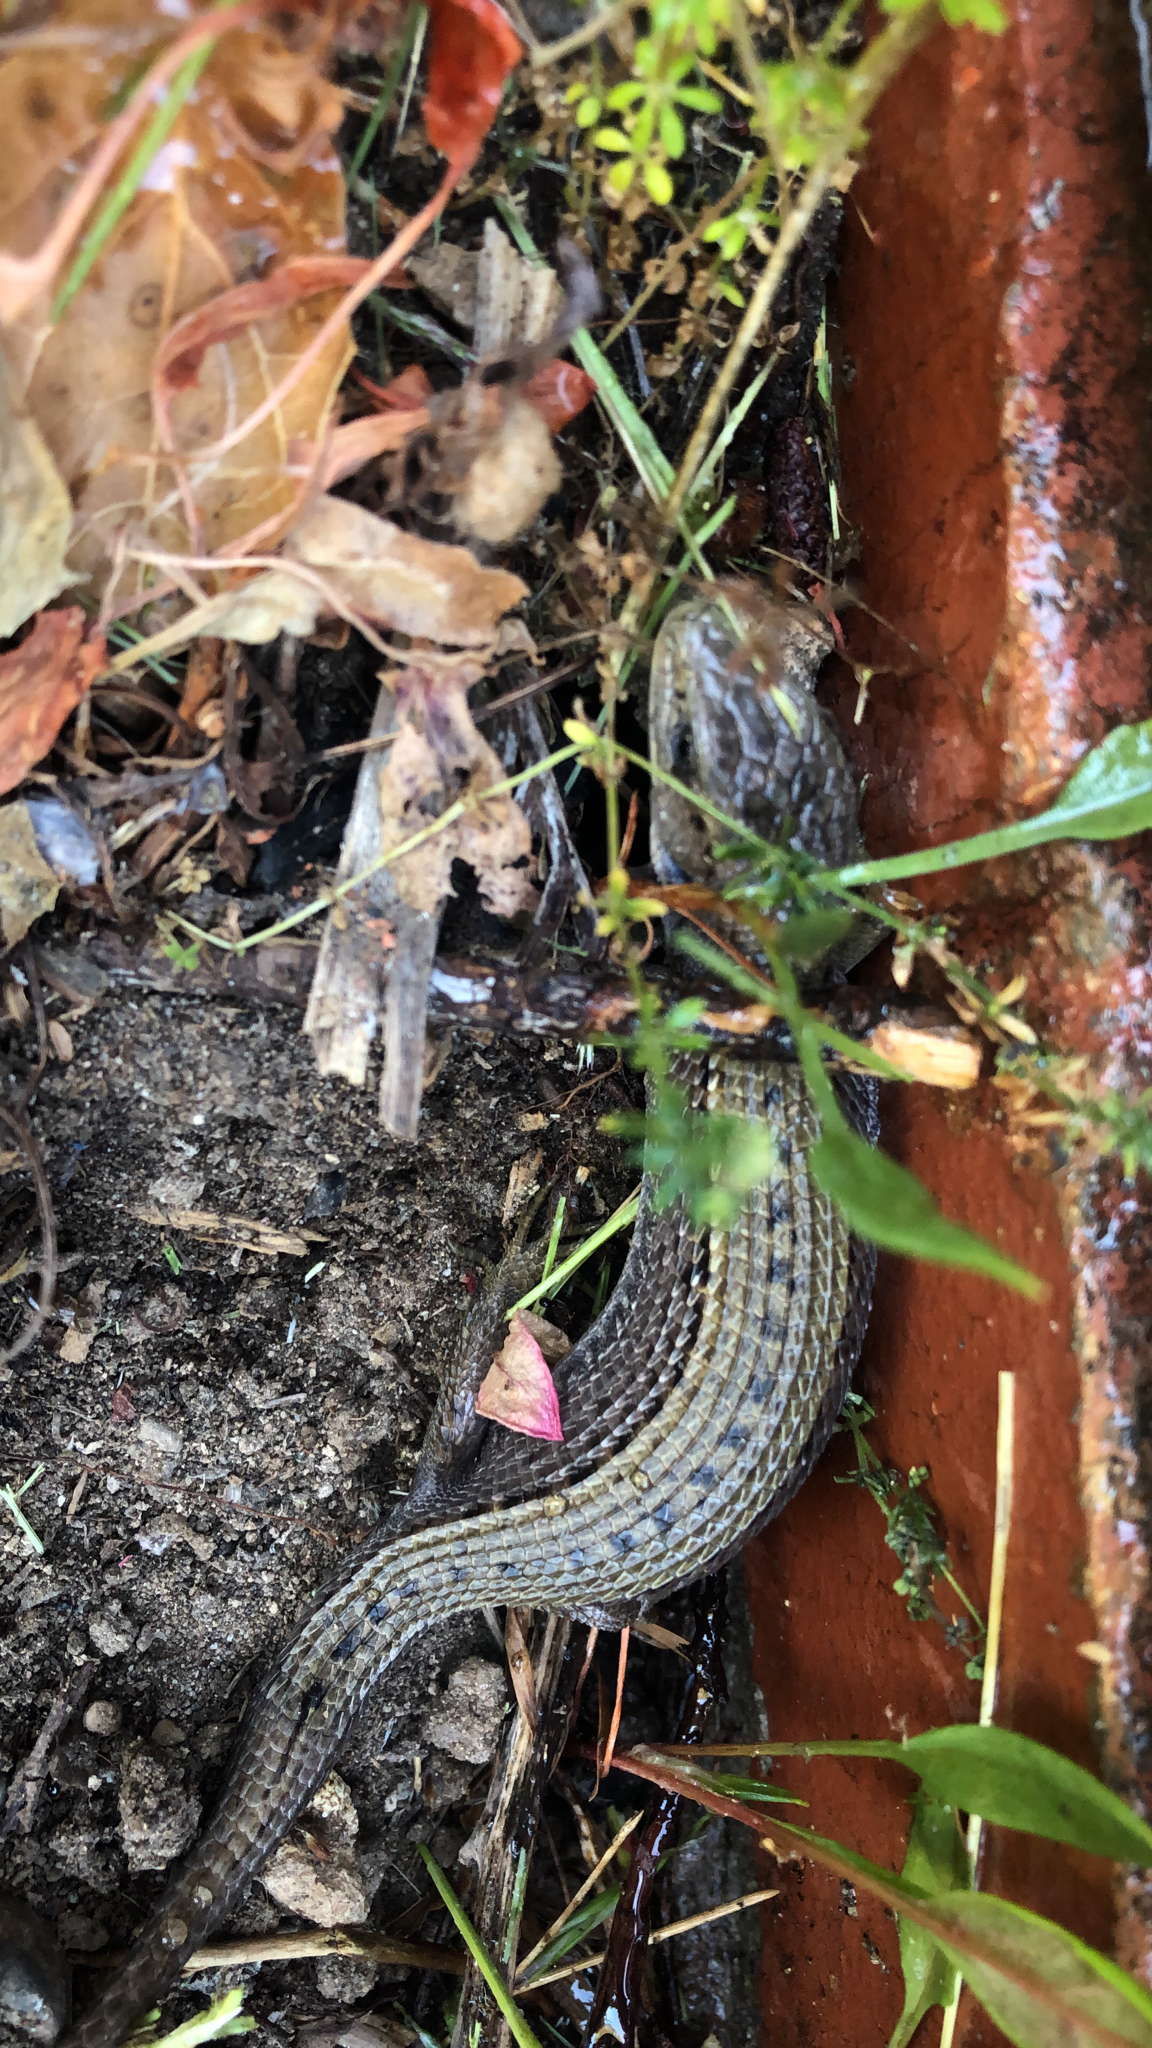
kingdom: Animalia
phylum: Chordata
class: Squamata
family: Anguidae
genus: Elgaria
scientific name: Elgaria coerulea
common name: Northern alligator lizard
